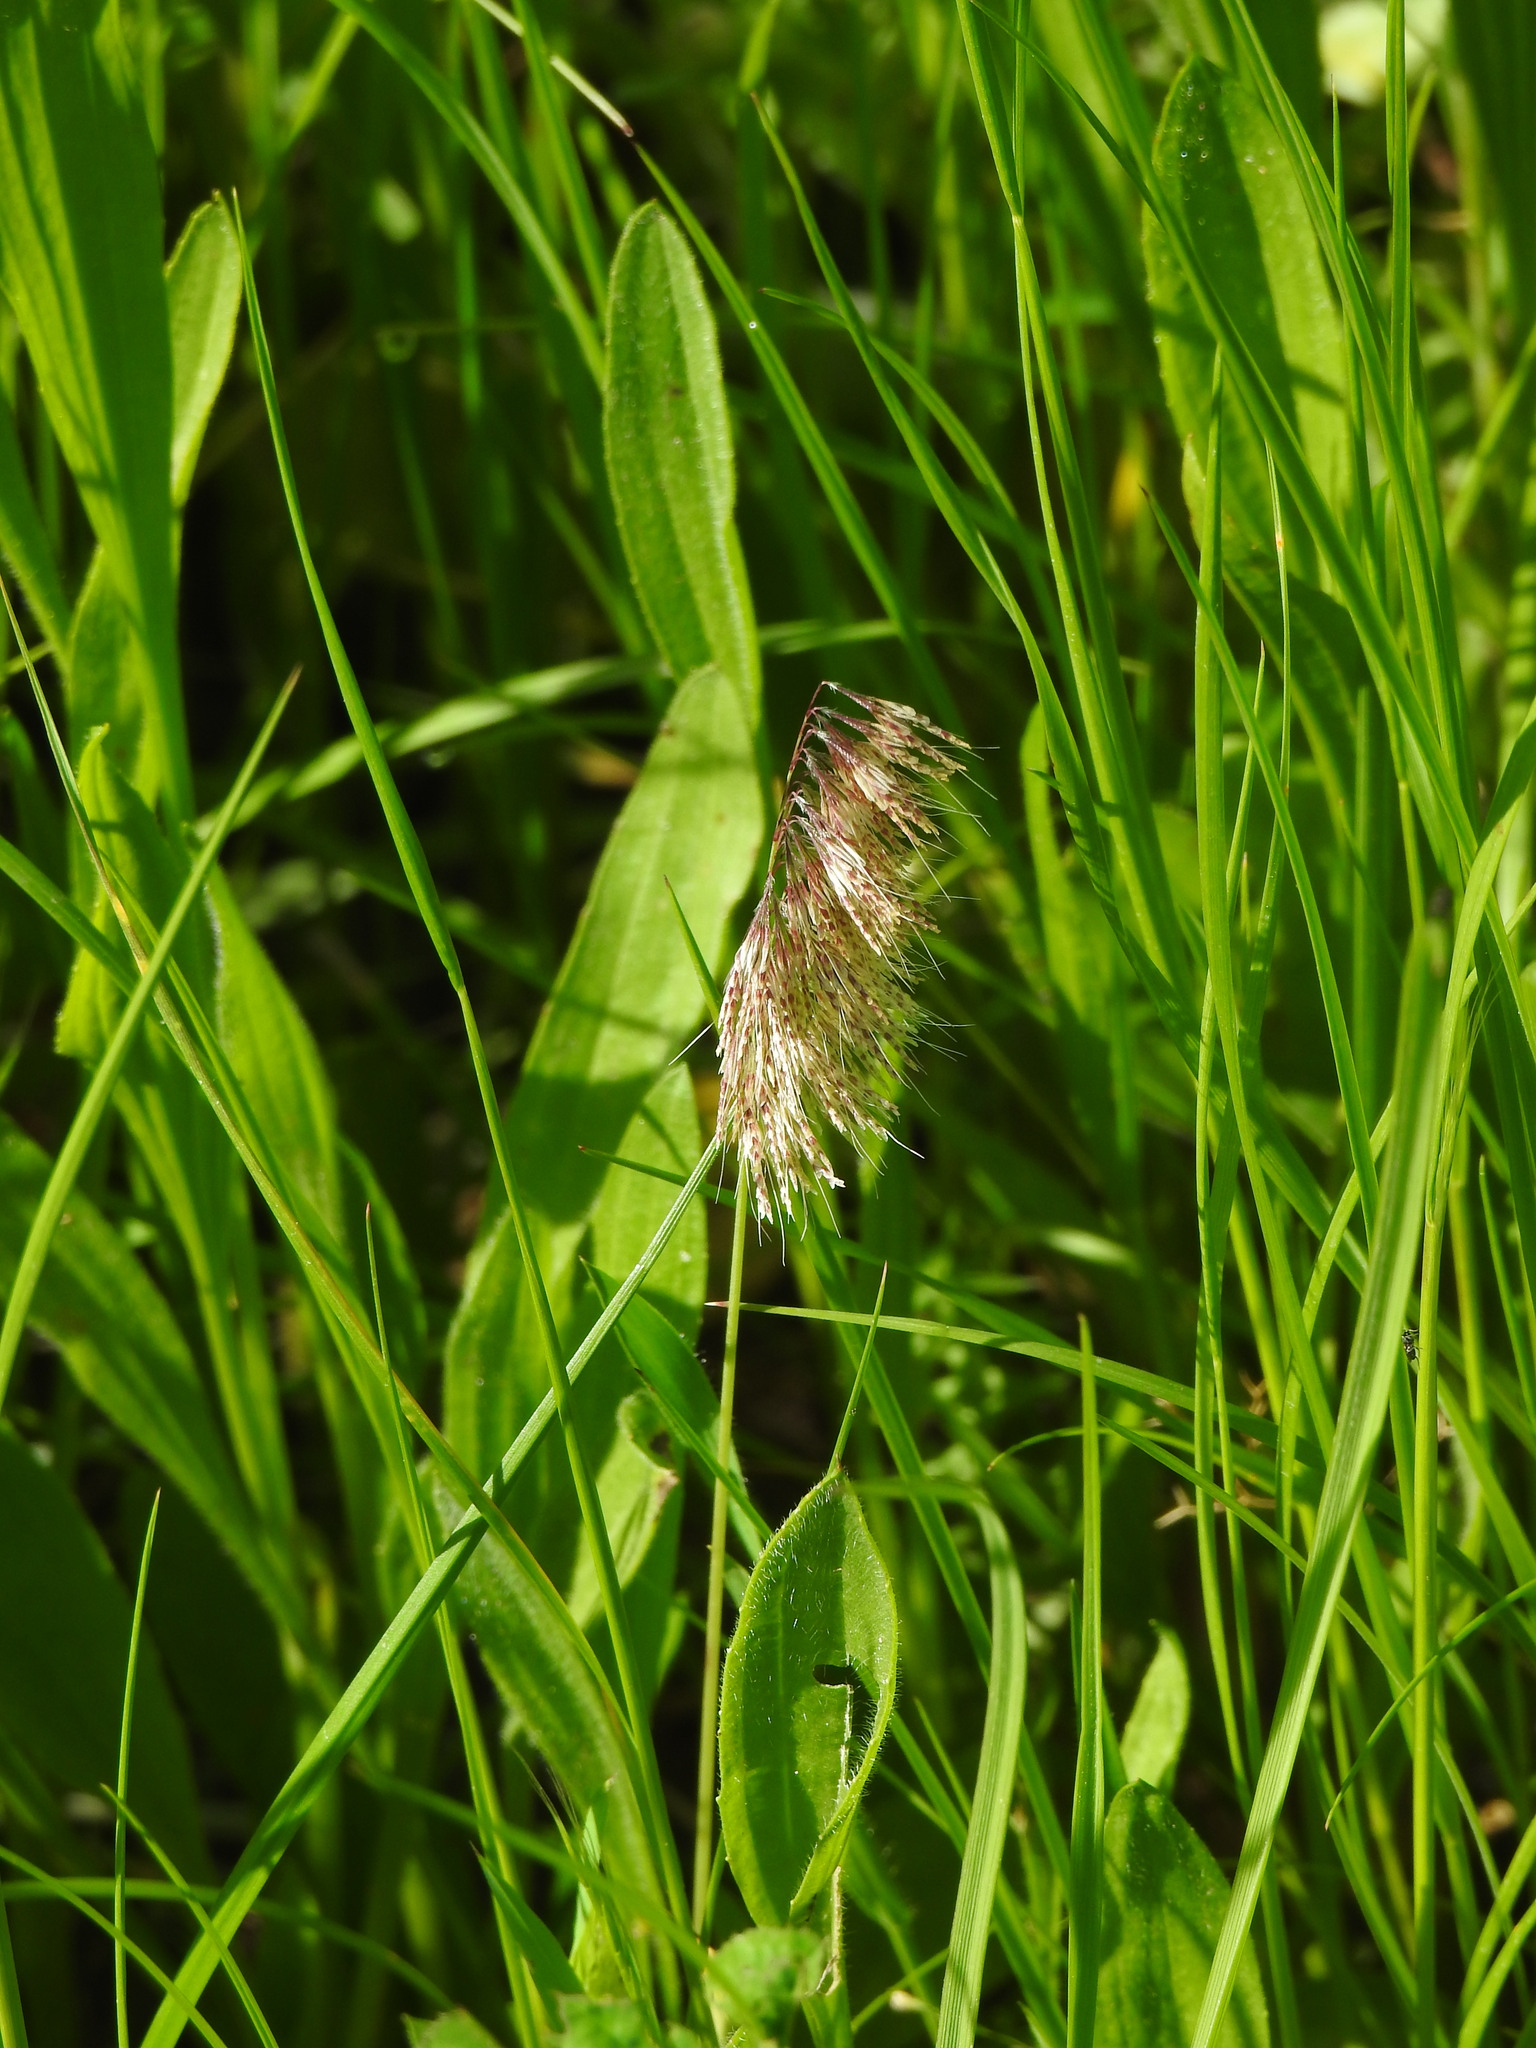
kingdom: Plantae
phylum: Tracheophyta
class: Liliopsida
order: Poales
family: Poaceae
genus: Lamarckia
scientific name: Lamarckia aurea
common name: Golden dog's-tail
